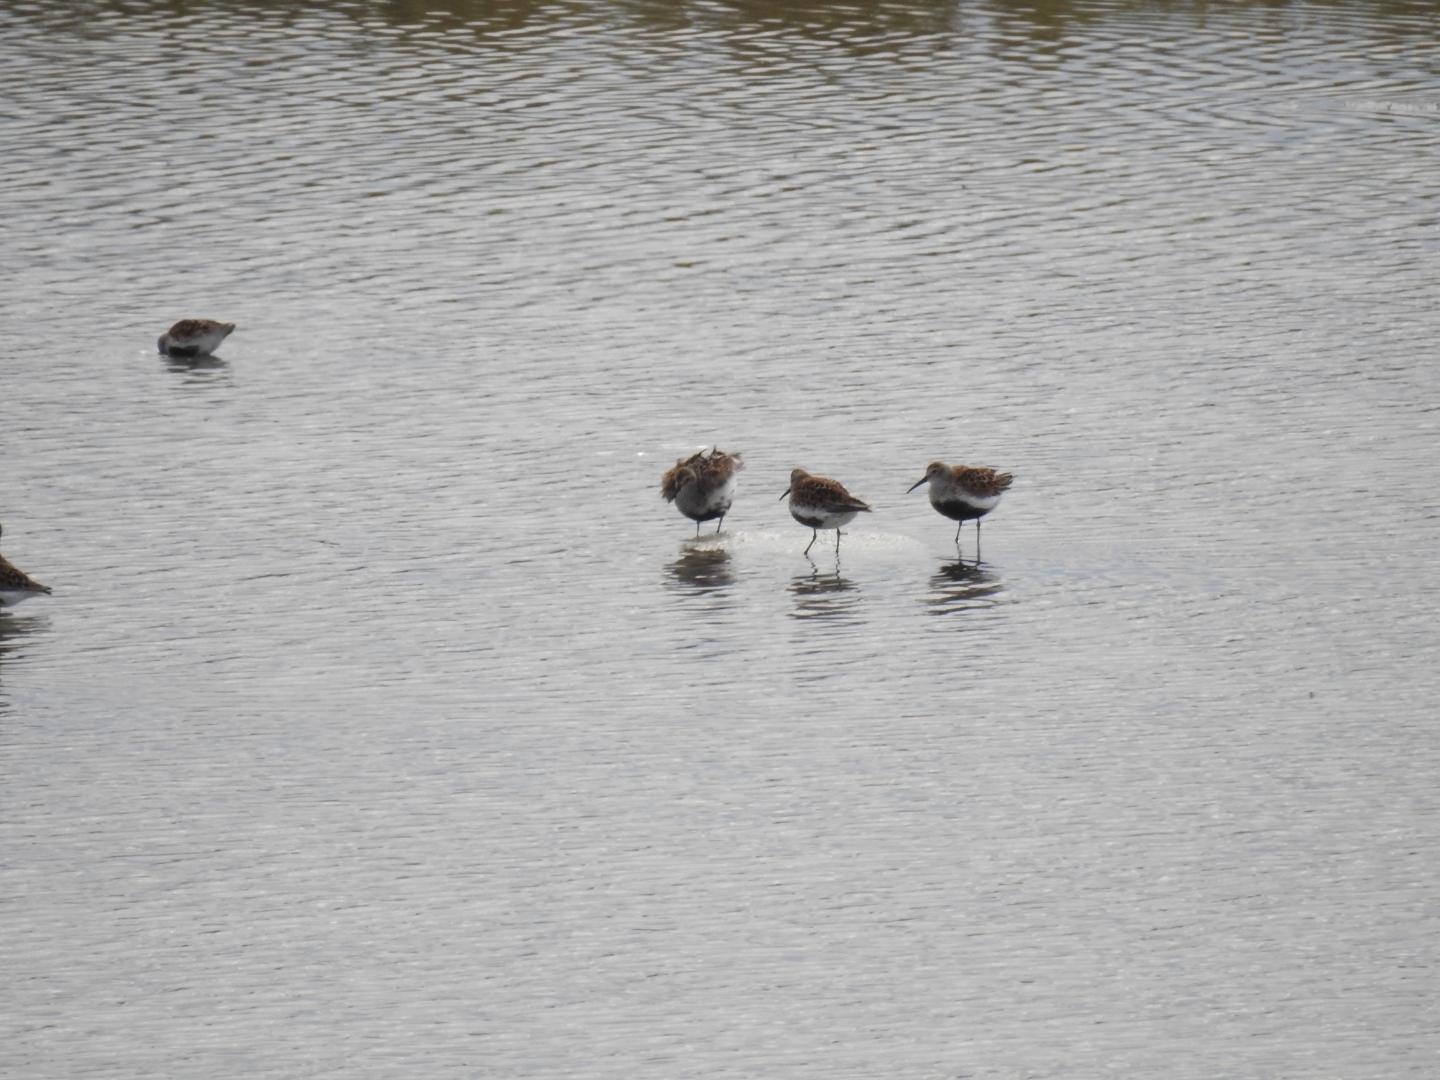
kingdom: Animalia
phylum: Chordata
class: Aves
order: Charadriiformes
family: Scolopacidae
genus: Calidris
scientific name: Calidris alpina
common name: Dunlin
